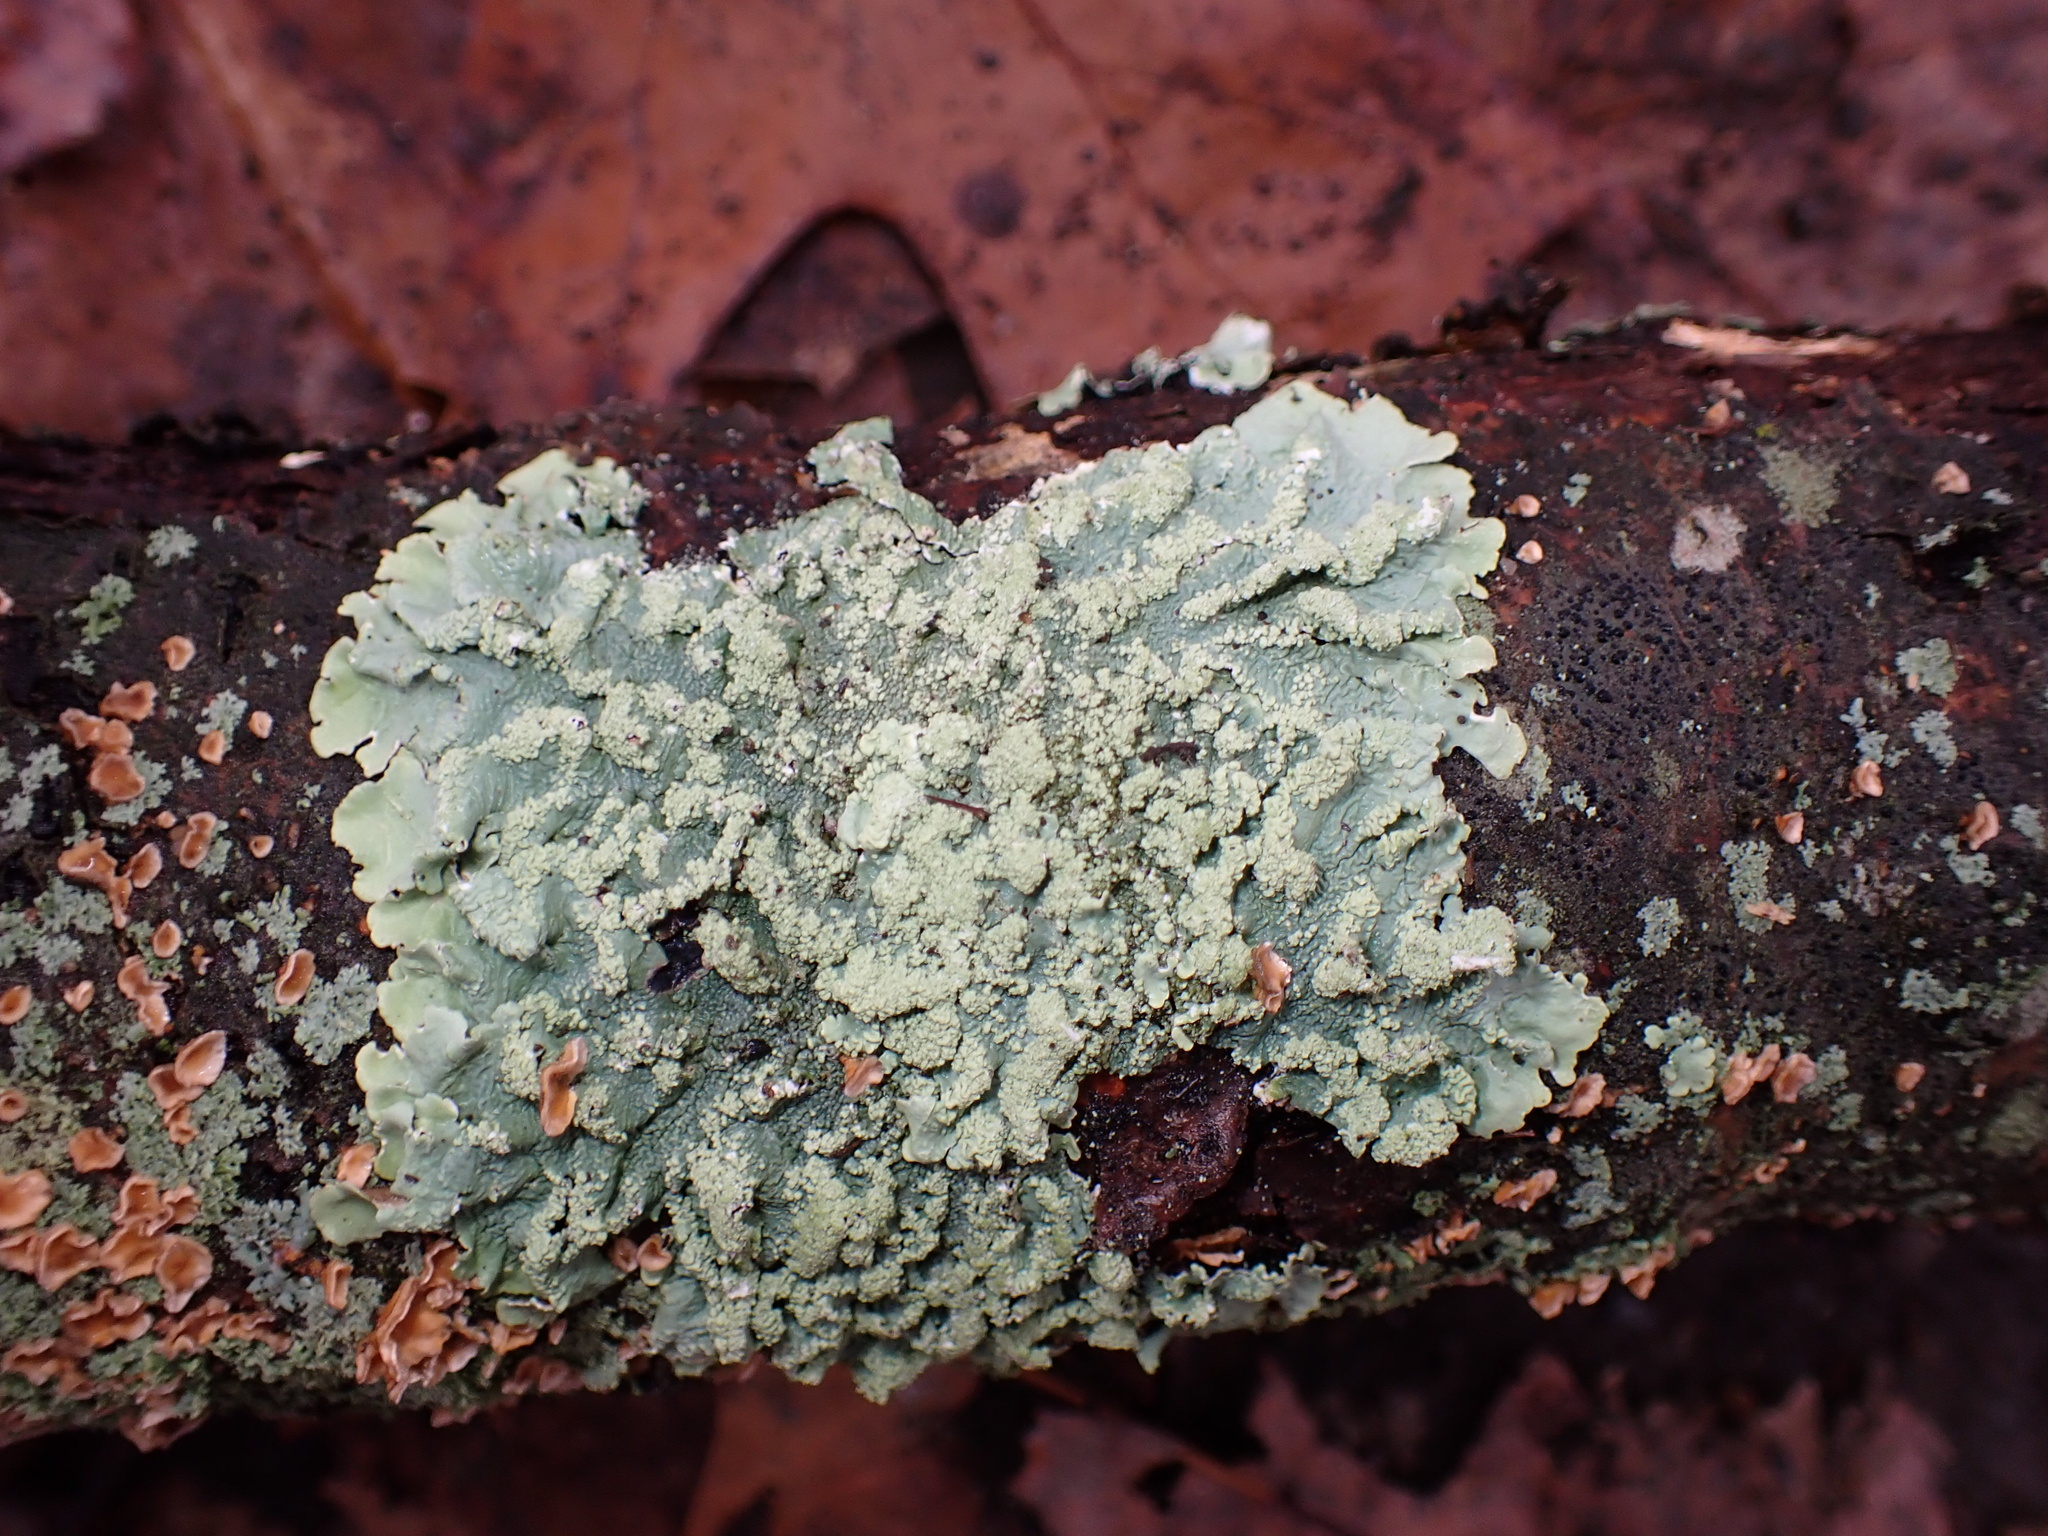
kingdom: Fungi
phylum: Ascomycota
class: Lecanoromycetes
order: Lecanorales
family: Parmeliaceae
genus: Flavoparmelia
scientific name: Flavoparmelia caperata
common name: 40-mile per hour lichen
